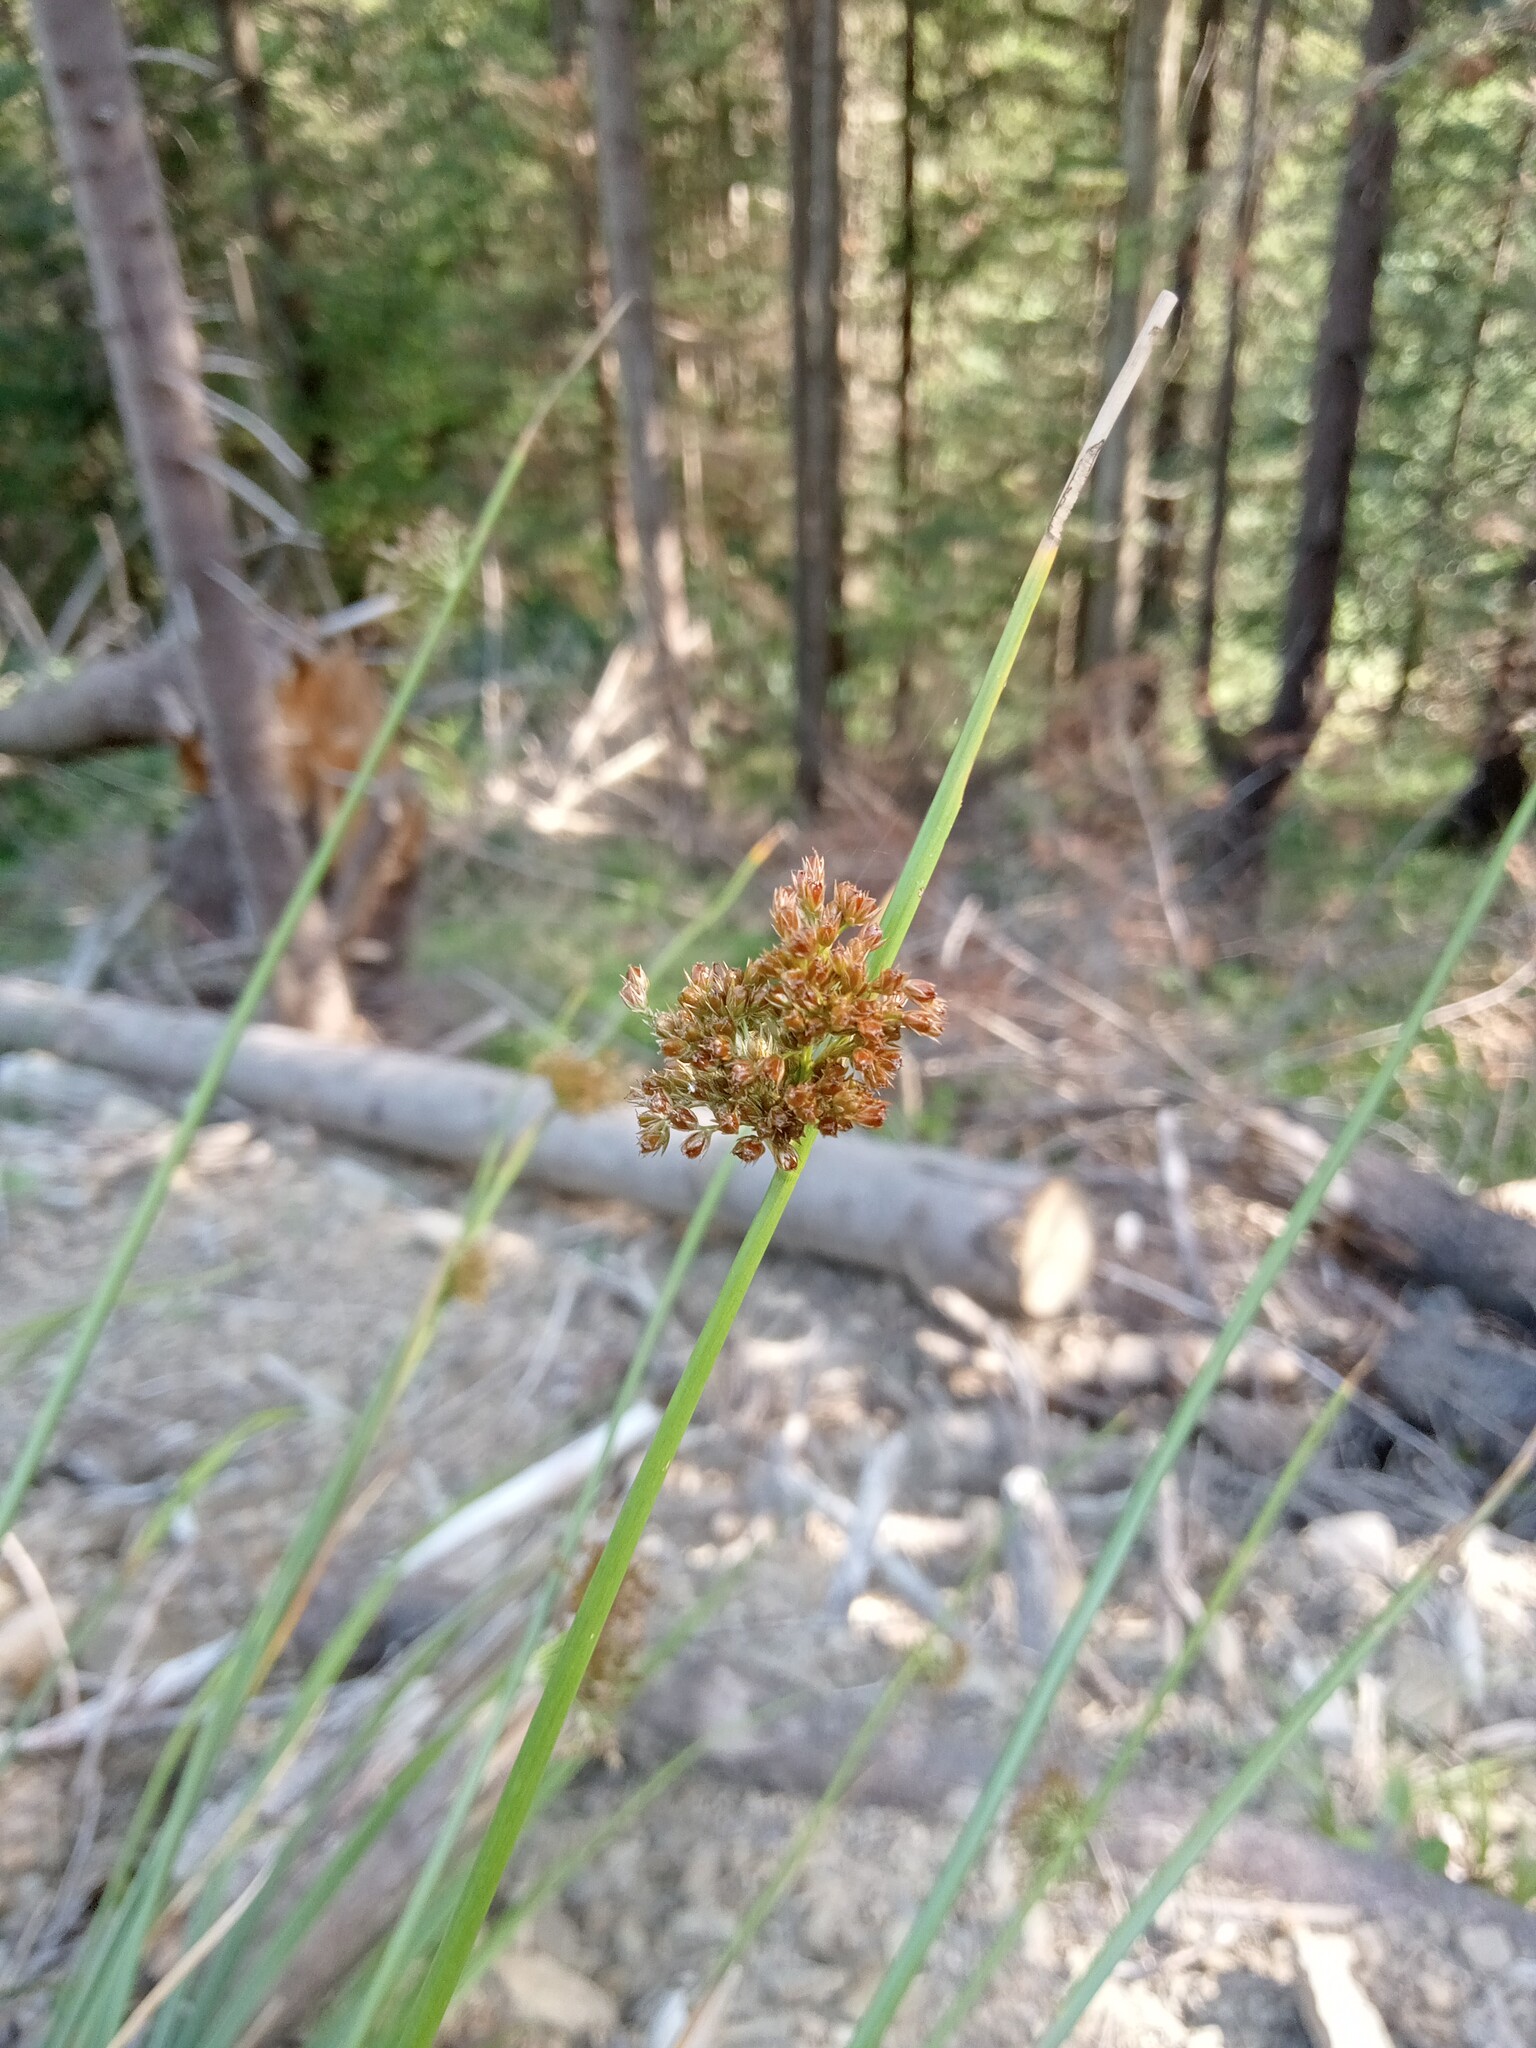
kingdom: Plantae
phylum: Tracheophyta
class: Liliopsida
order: Poales
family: Juncaceae
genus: Juncus
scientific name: Juncus effusus
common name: Soft rush
